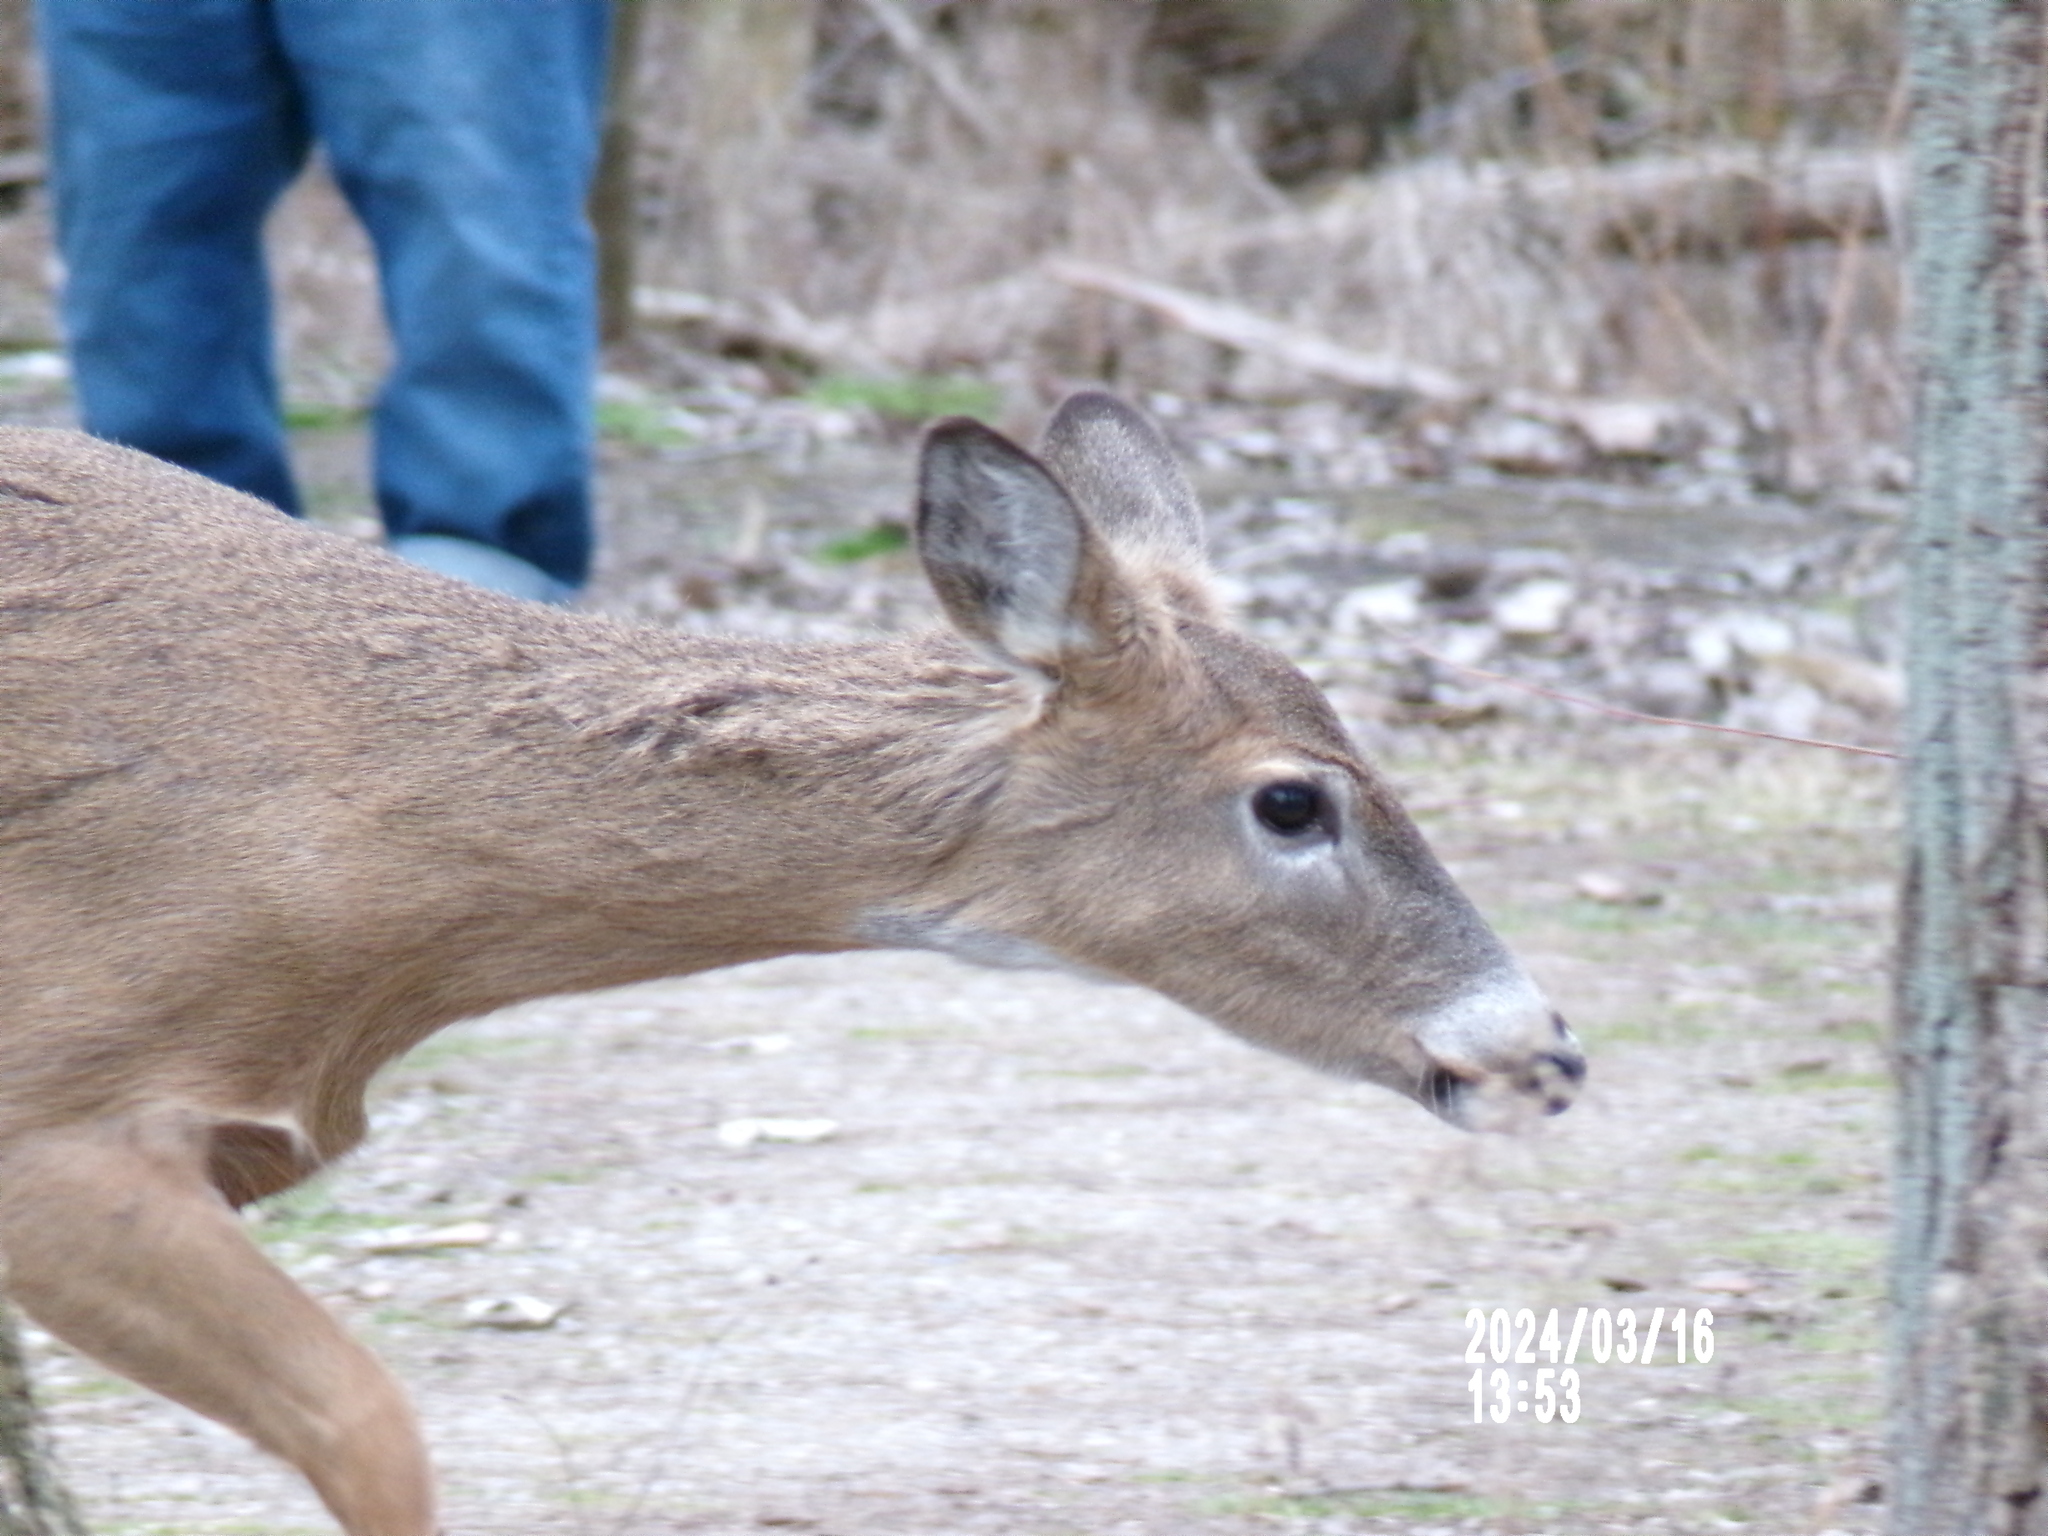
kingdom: Animalia
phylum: Chordata
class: Mammalia
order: Artiodactyla
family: Cervidae
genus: Odocoileus
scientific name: Odocoileus virginianus
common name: White-tailed deer
